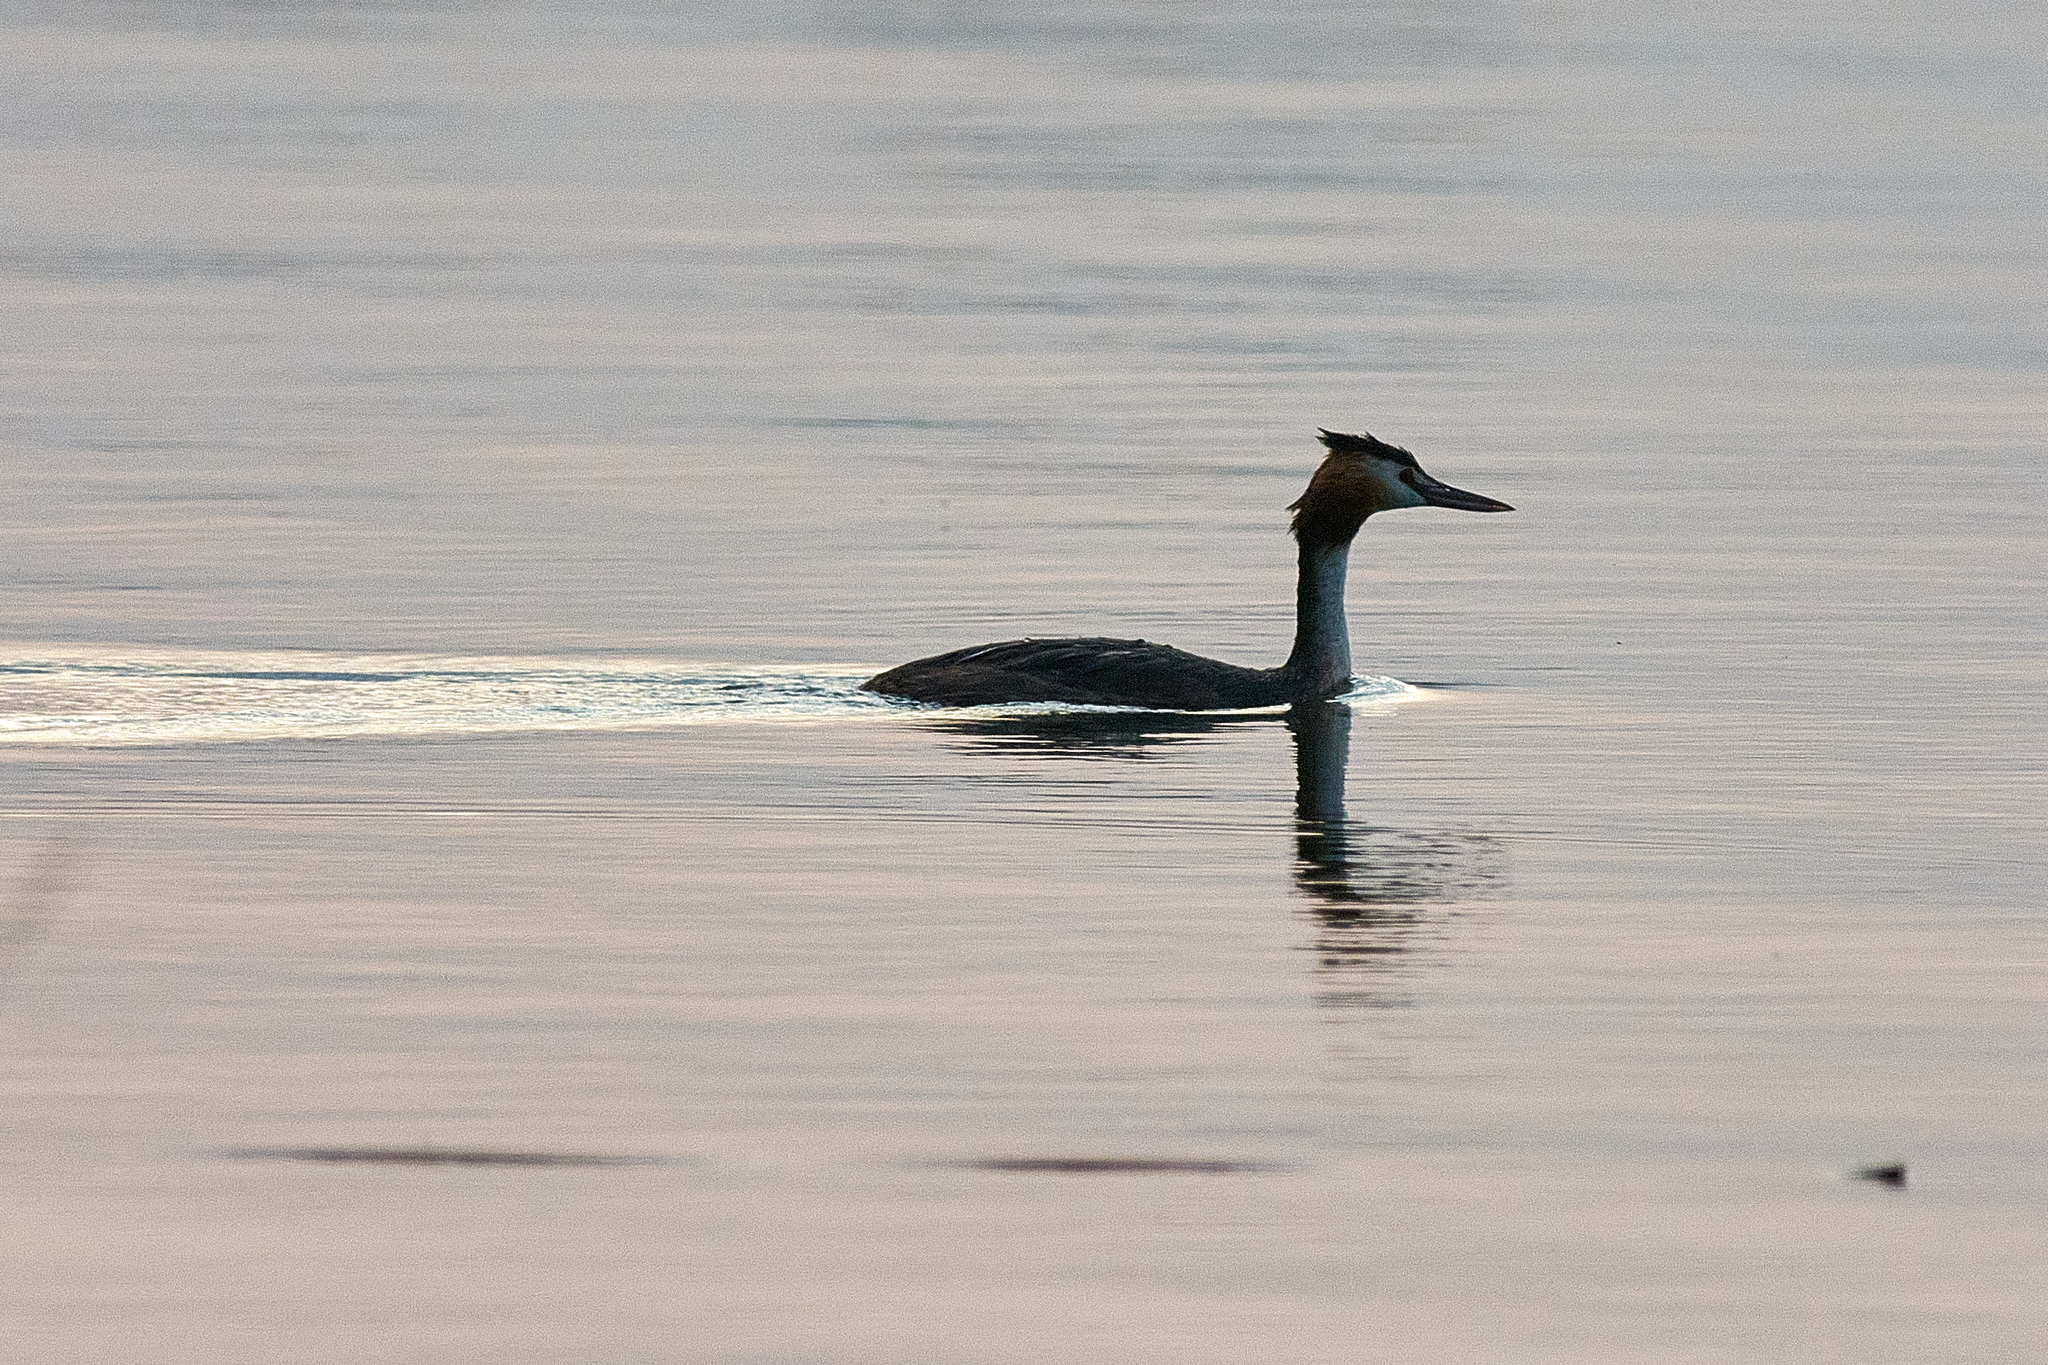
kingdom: Animalia
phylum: Chordata
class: Aves
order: Podicipediformes
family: Podicipedidae
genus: Podiceps
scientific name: Podiceps cristatus
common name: Great crested grebe
